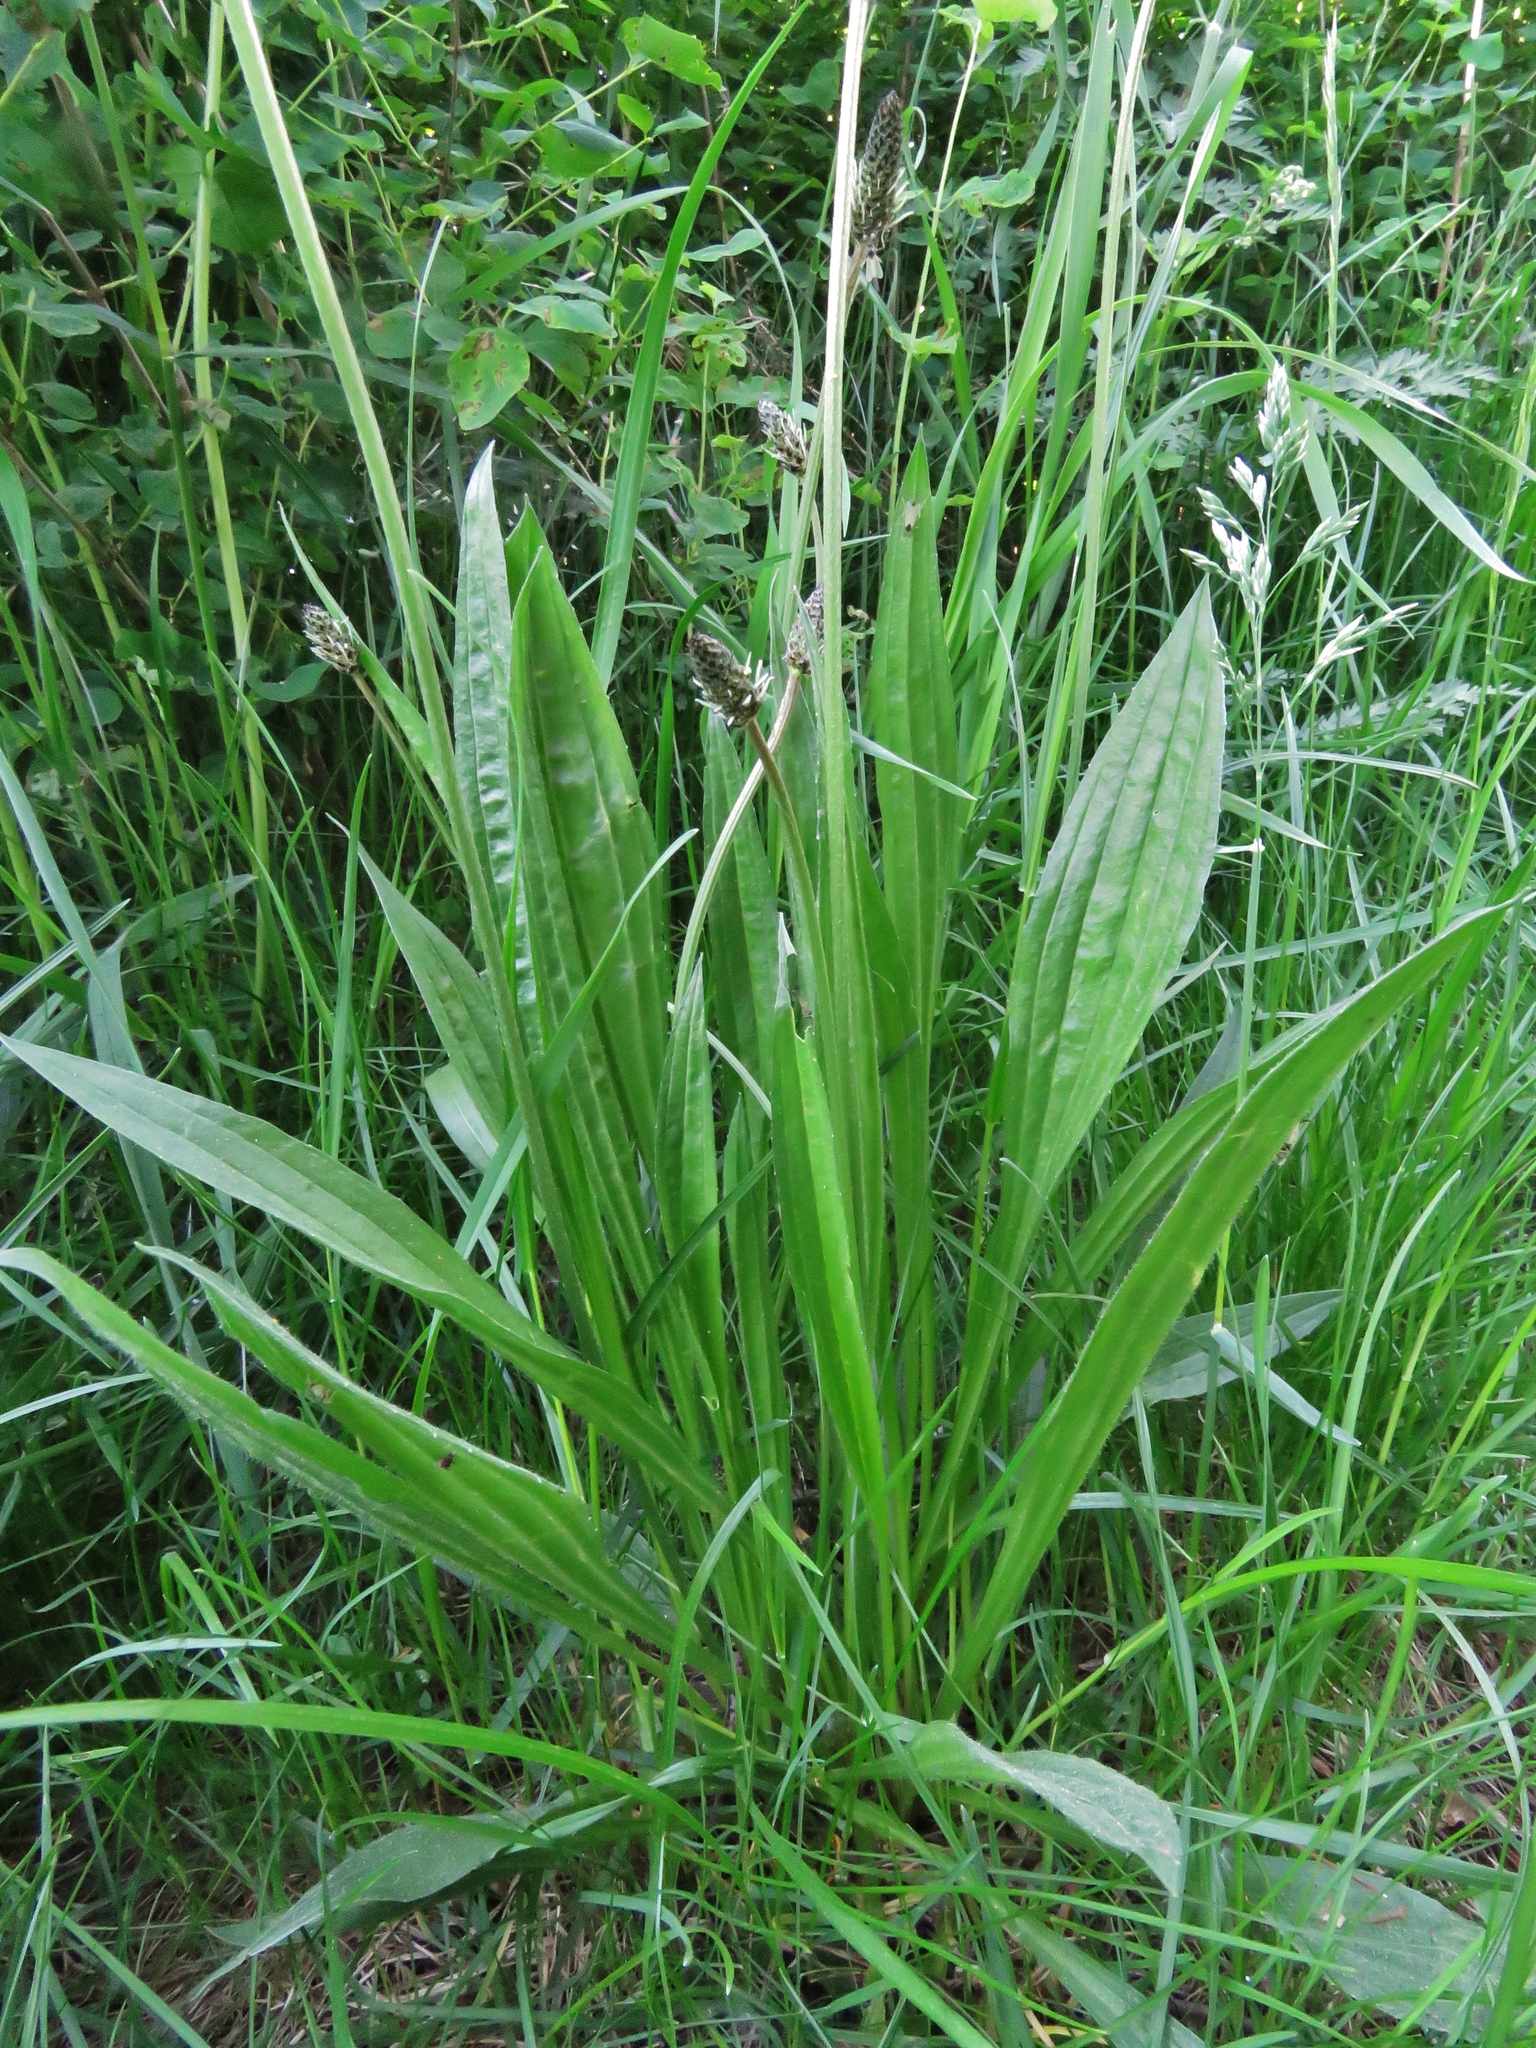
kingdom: Plantae
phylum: Tracheophyta
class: Magnoliopsida
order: Lamiales
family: Plantaginaceae
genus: Plantago
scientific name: Plantago lanceolata
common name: Ribwort plantain
